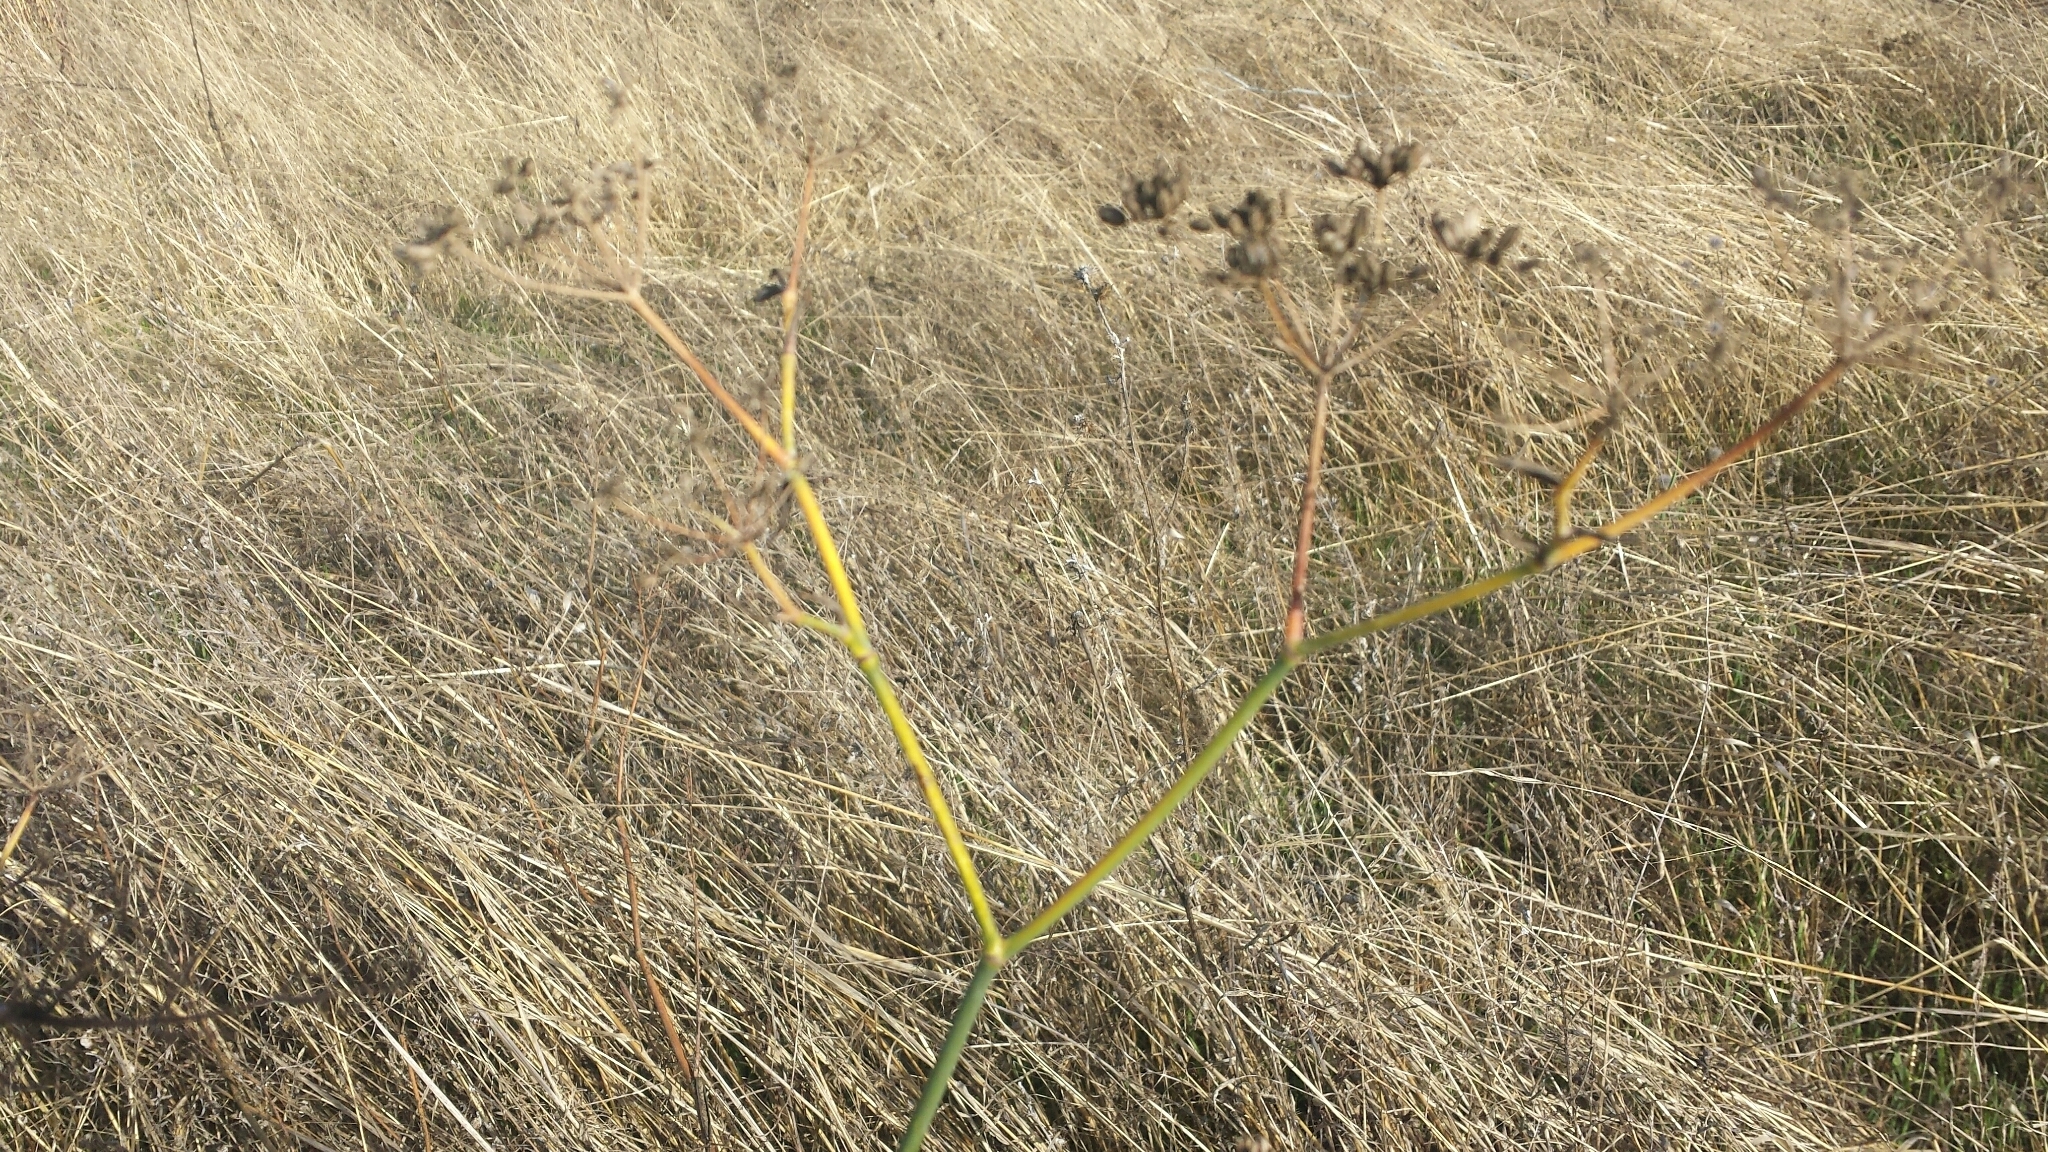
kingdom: Plantae
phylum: Tracheophyta
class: Magnoliopsida
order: Apiales
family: Apiaceae
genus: Foeniculum
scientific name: Foeniculum vulgare
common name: Fennel
